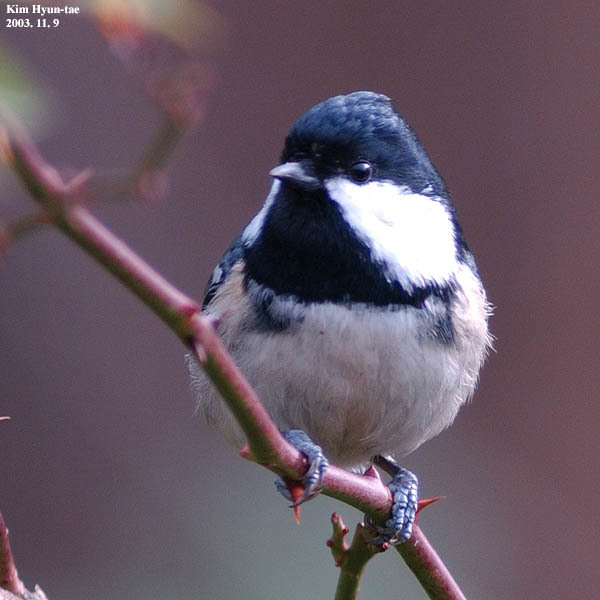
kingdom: Animalia
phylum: Chordata
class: Aves
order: Passeriformes
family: Paridae
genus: Periparus
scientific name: Periparus ater
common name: Coal tit
